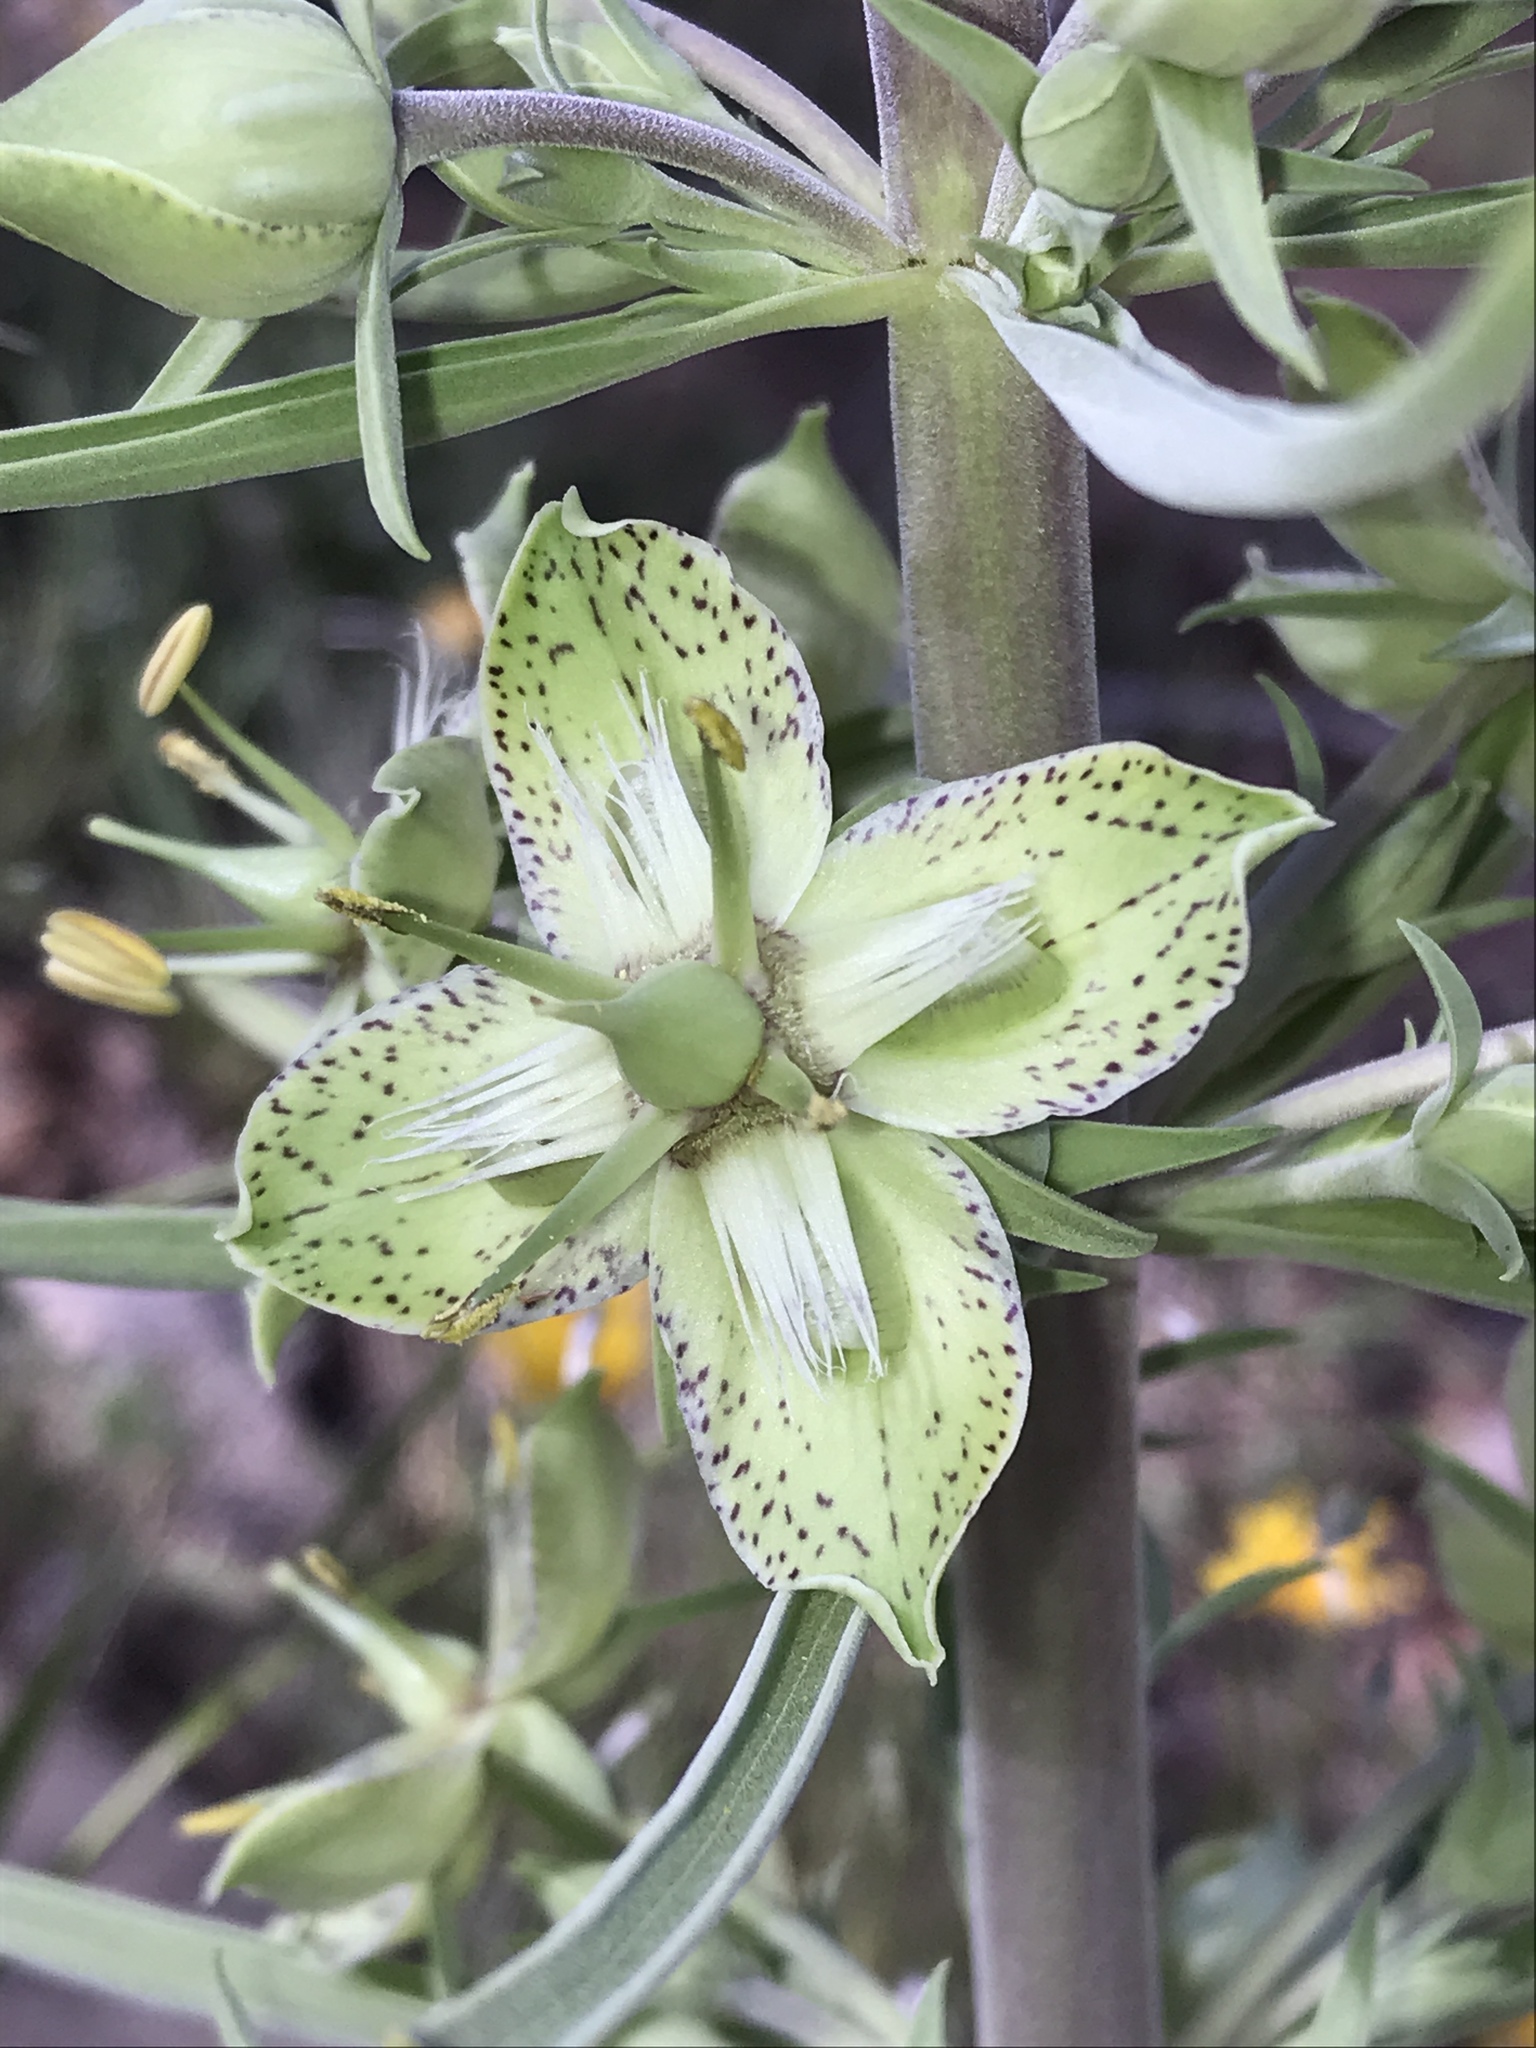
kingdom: Plantae
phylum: Tracheophyta
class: Magnoliopsida
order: Gentianales
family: Gentianaceae
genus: Frasera
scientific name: Frasera speciosa
